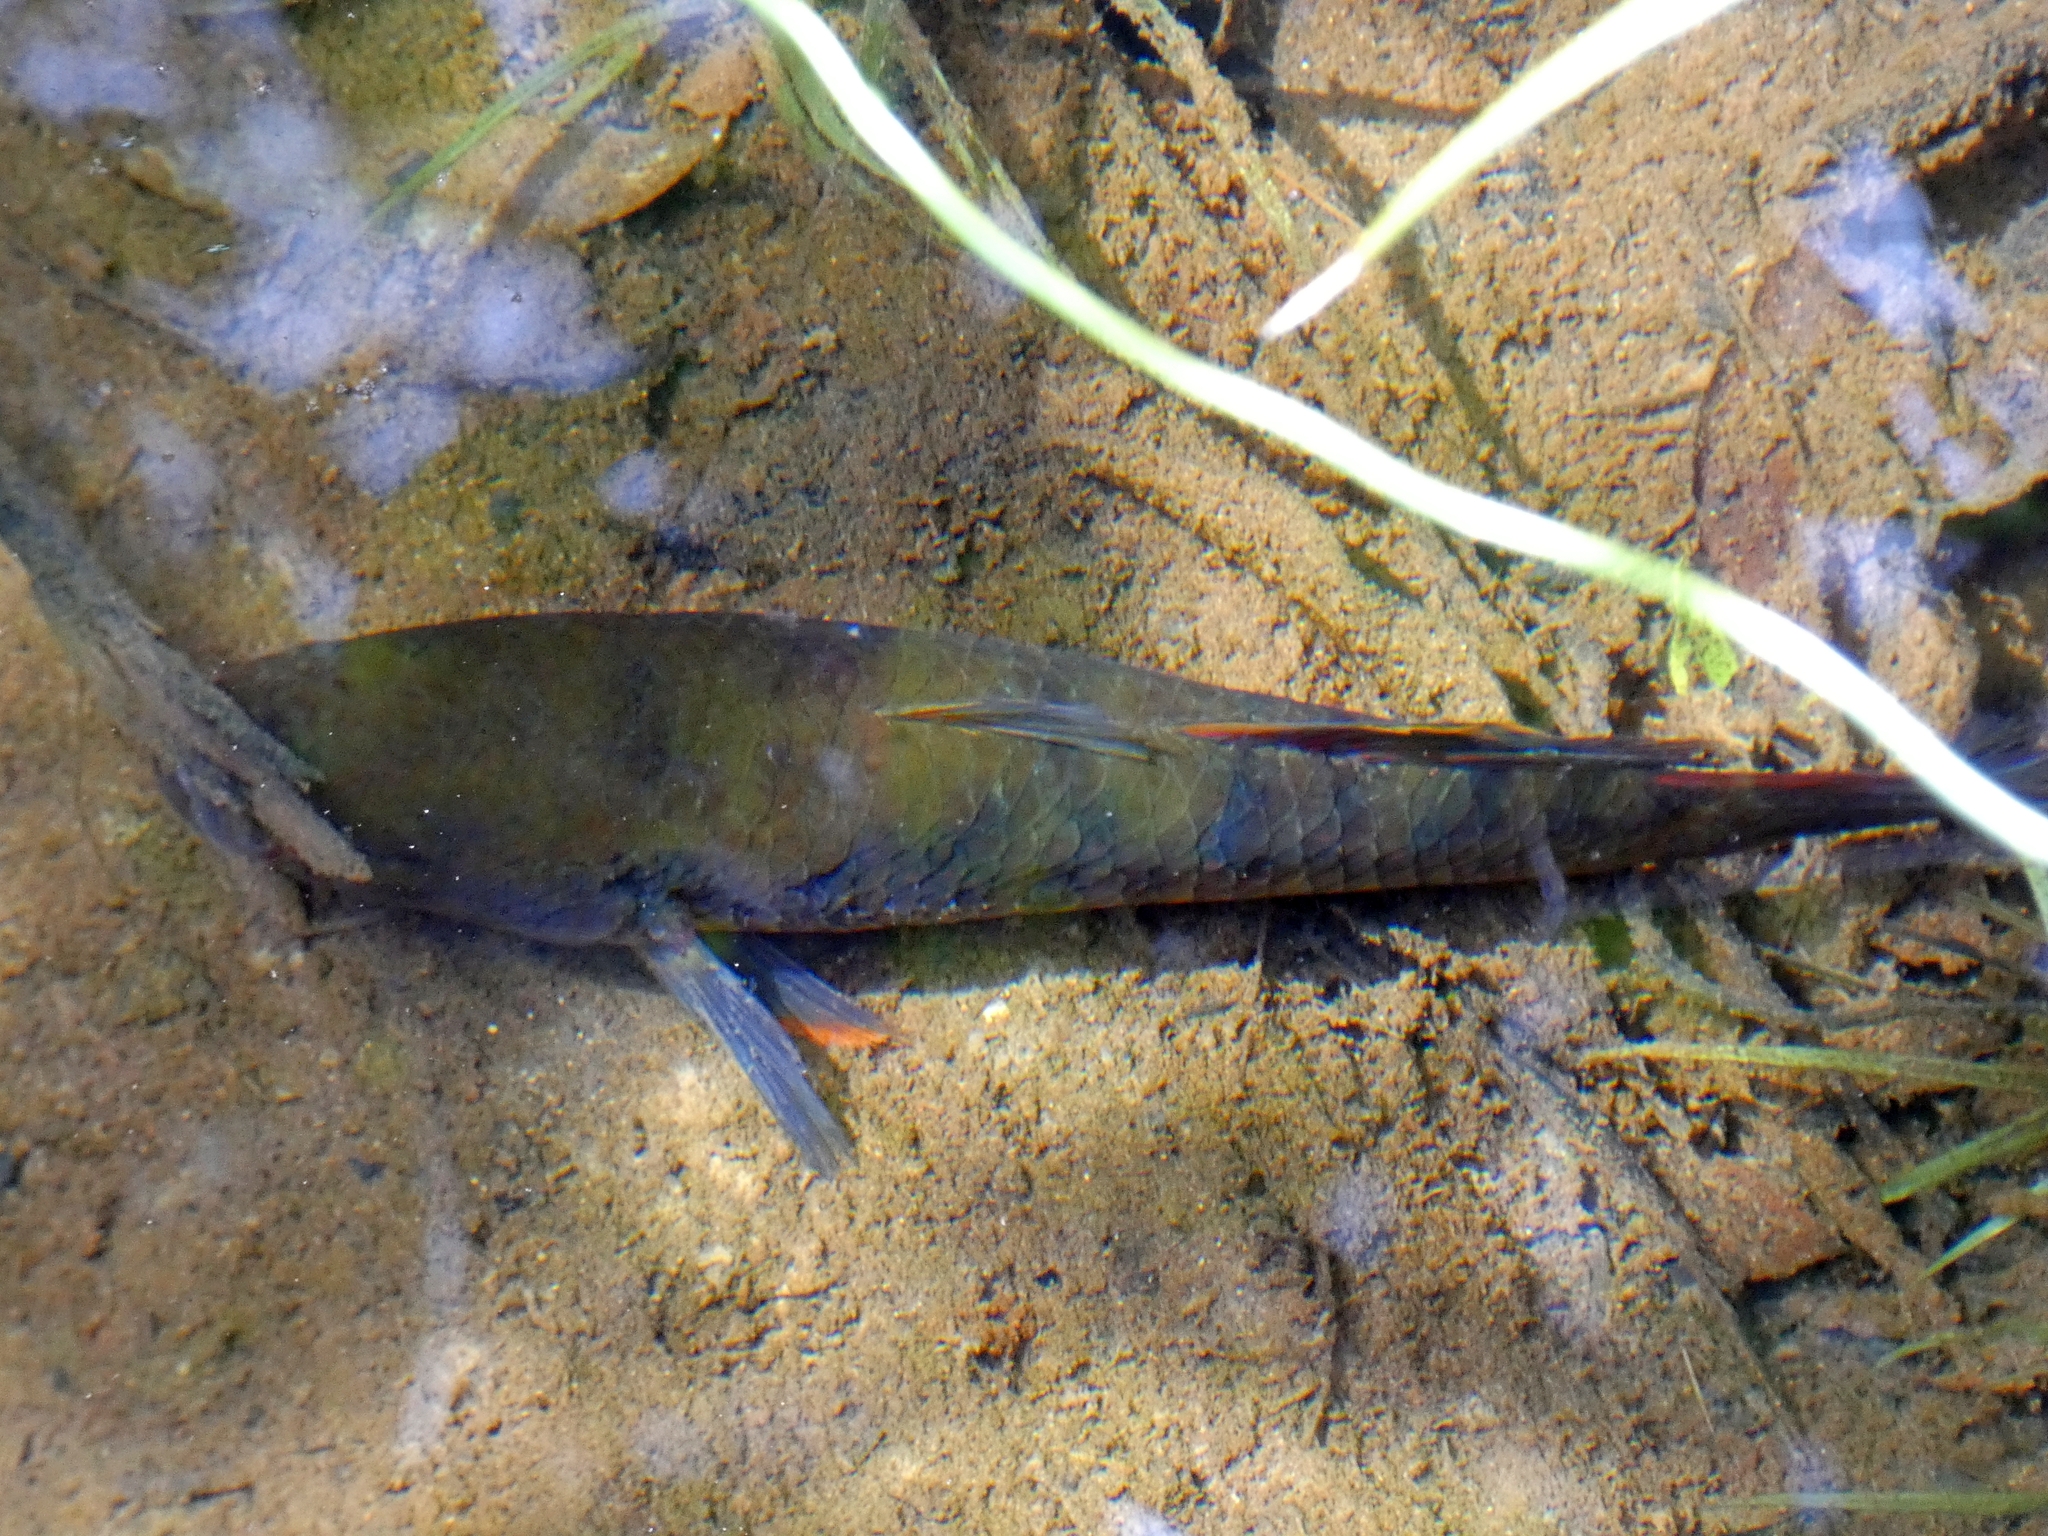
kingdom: Animalia
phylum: Chordata
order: Perciformes
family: Eleotridae
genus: Giuris
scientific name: Giuris
